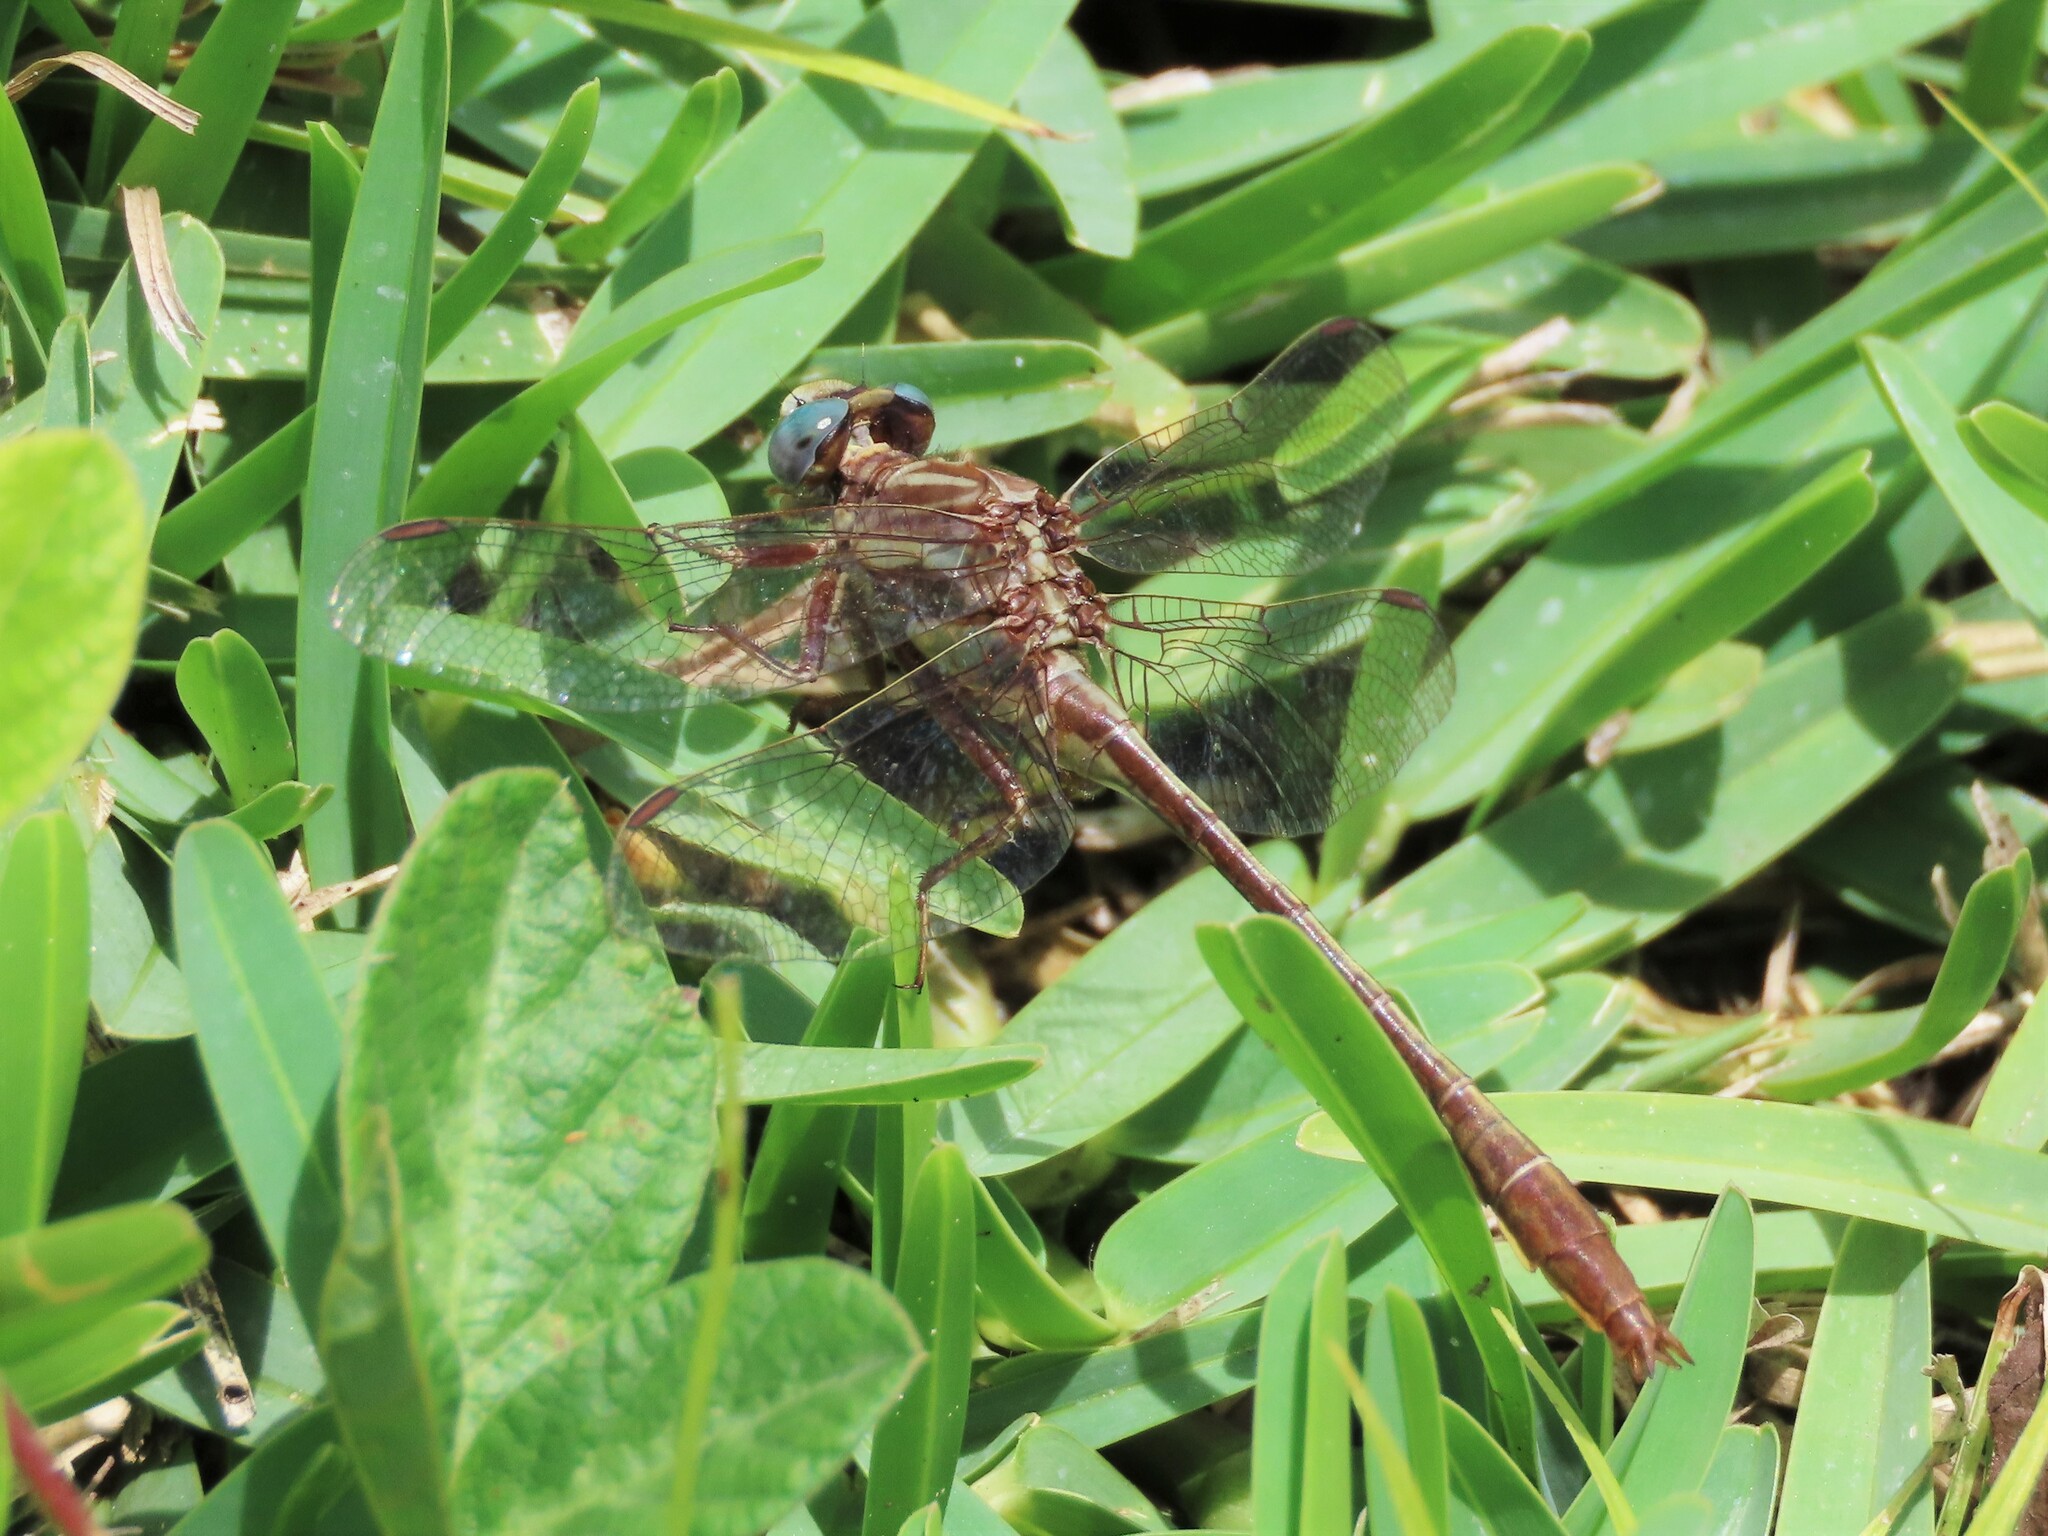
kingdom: Animalia
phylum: Arthropoda
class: Insecta
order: Odonata
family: Gomphidae
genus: Phanogomphus
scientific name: Phanogomphus minutus
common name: Cypress clubtail
